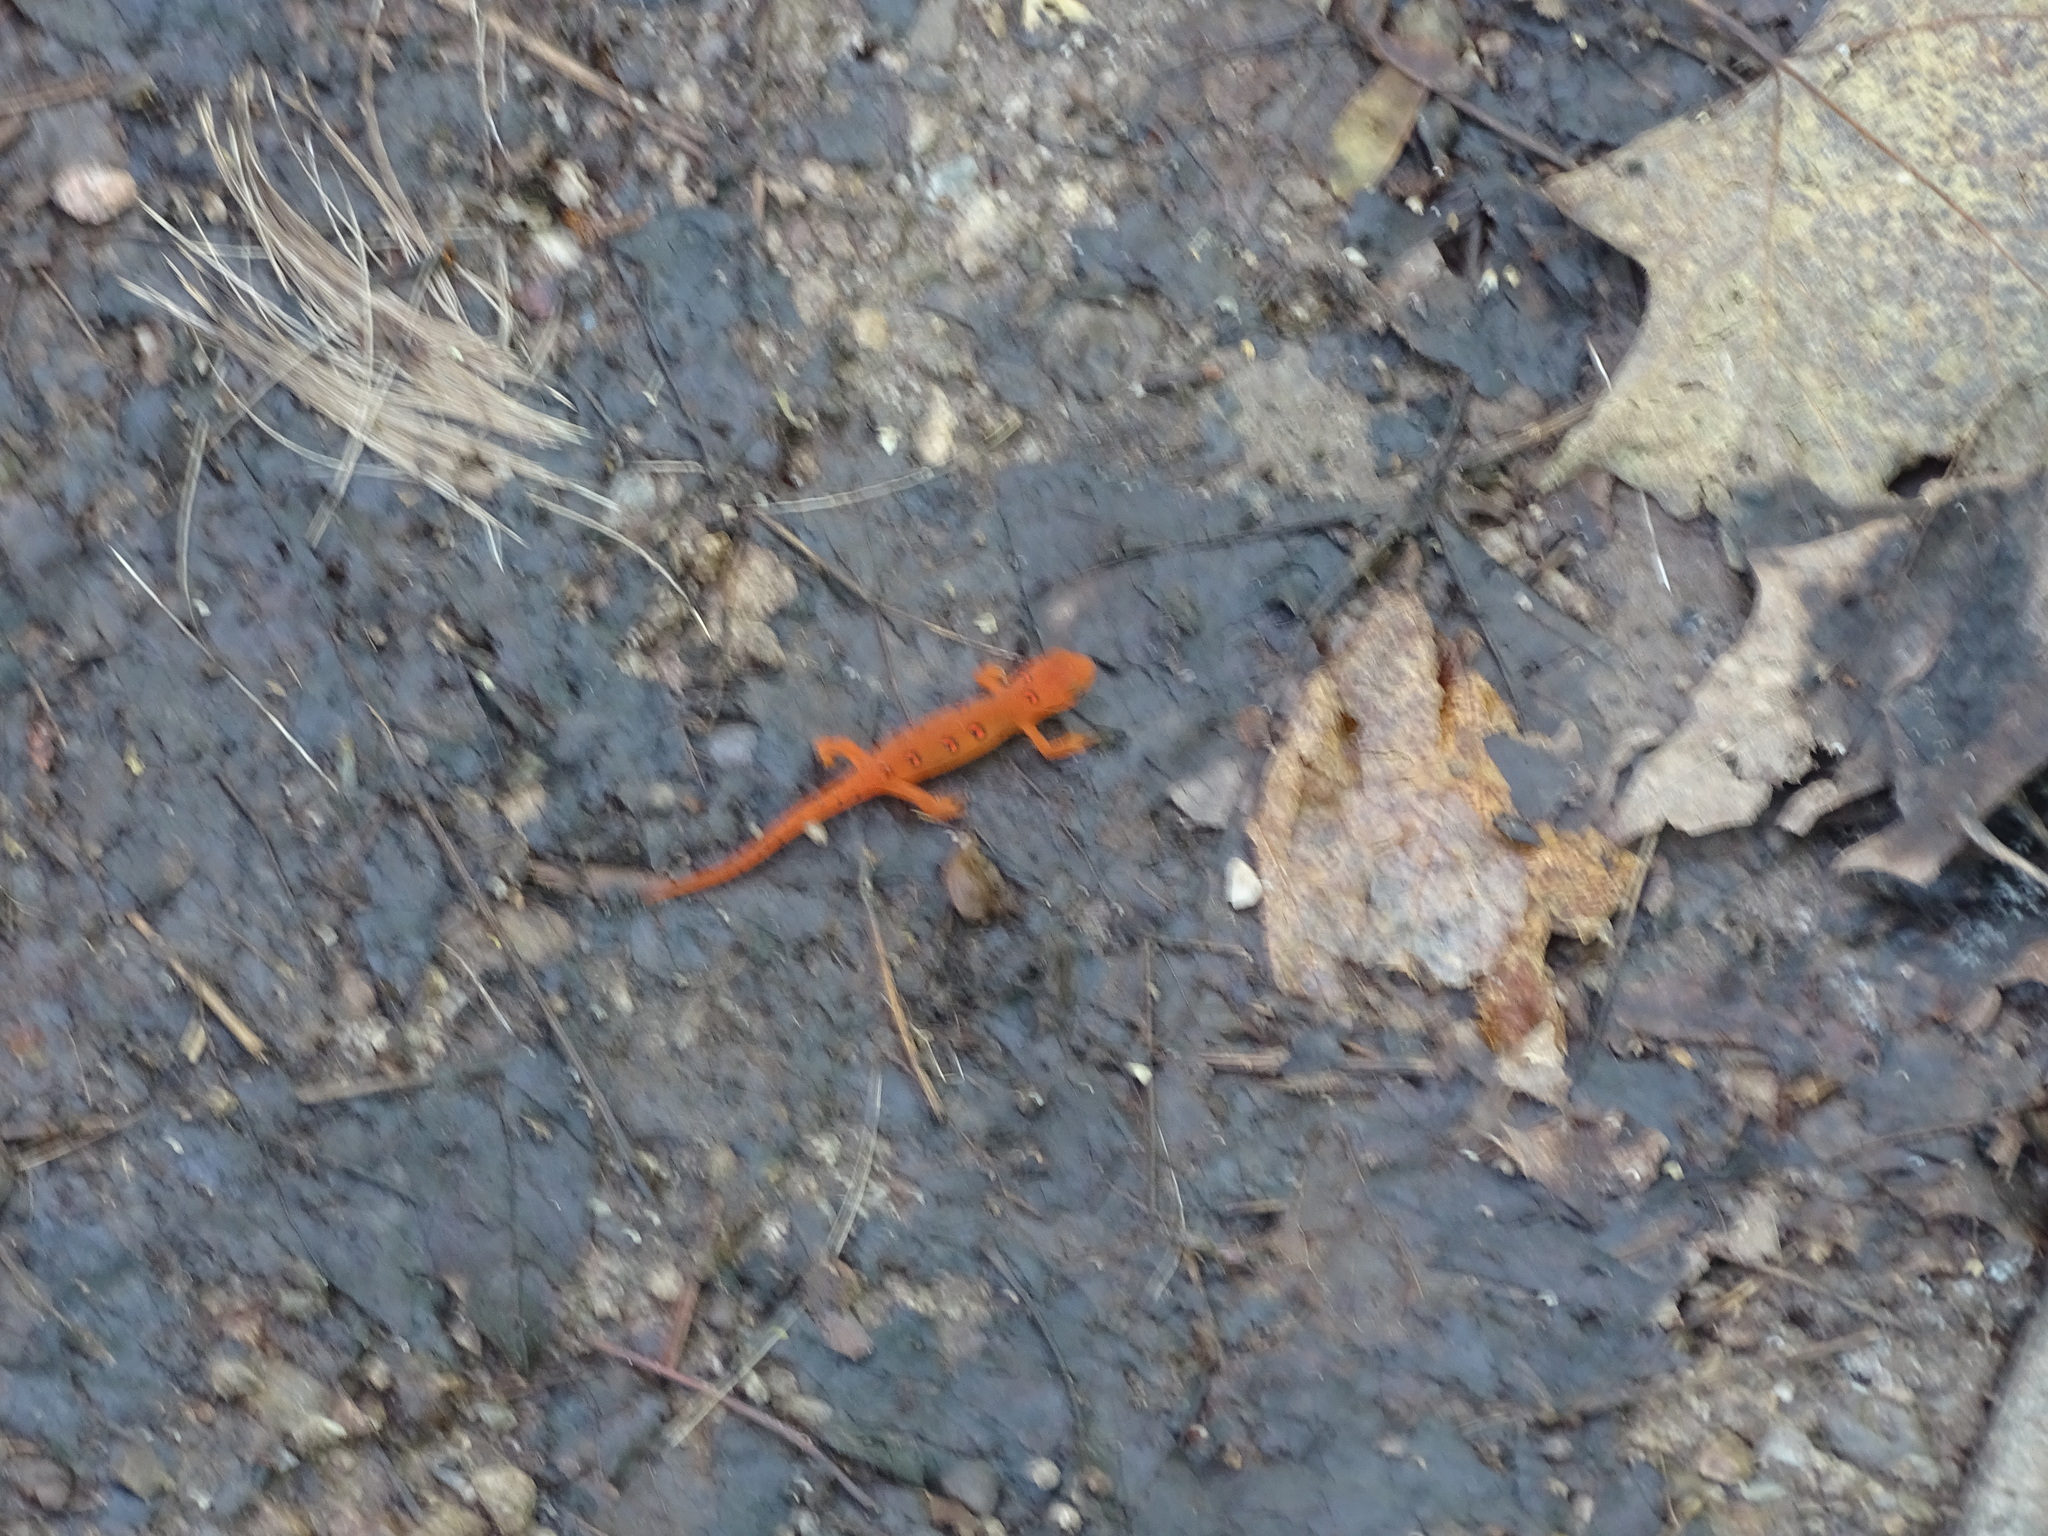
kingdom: Animalia
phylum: Chordata
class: Amphibia
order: Caudata
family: Salamandridae
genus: Notophthalmus
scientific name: Notophthalmus viridescens
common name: Eastern newt
